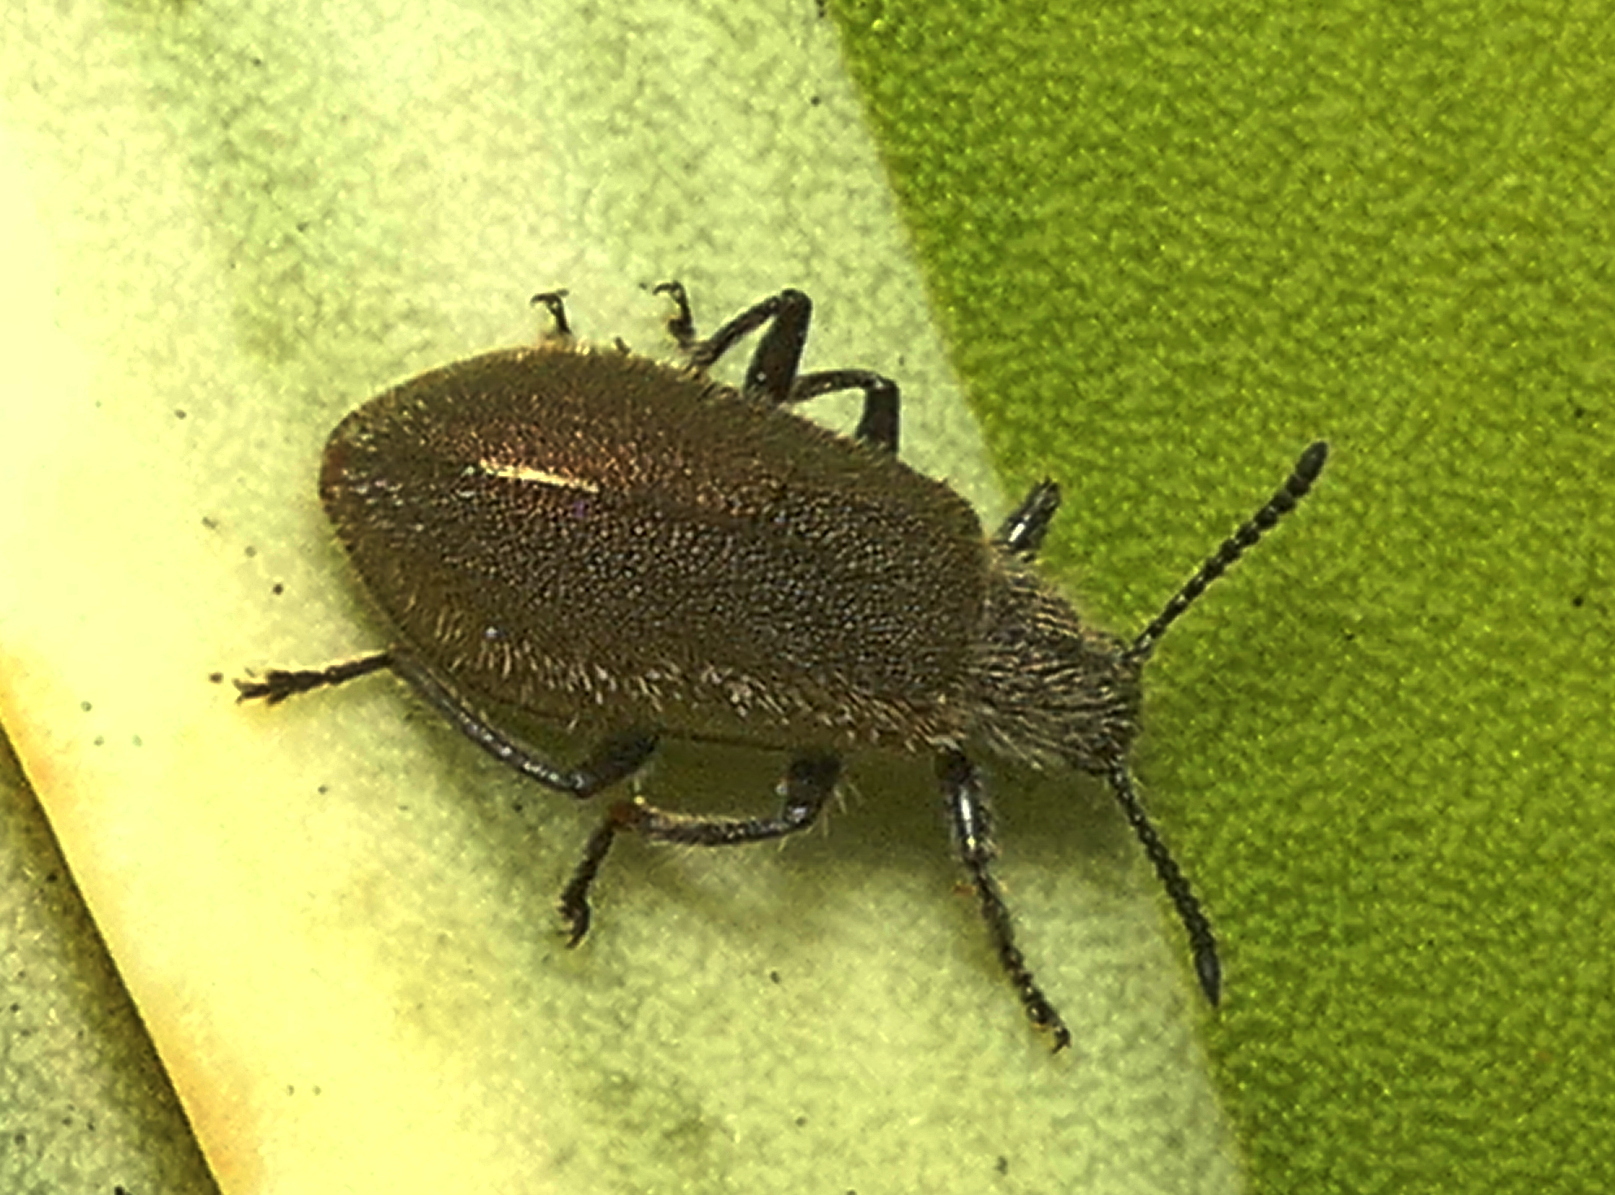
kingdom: Animalia
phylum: Arthropoda
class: Insecta
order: Coleoptera
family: Tenebrionidae
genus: Lagria
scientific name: Lagria villosa
